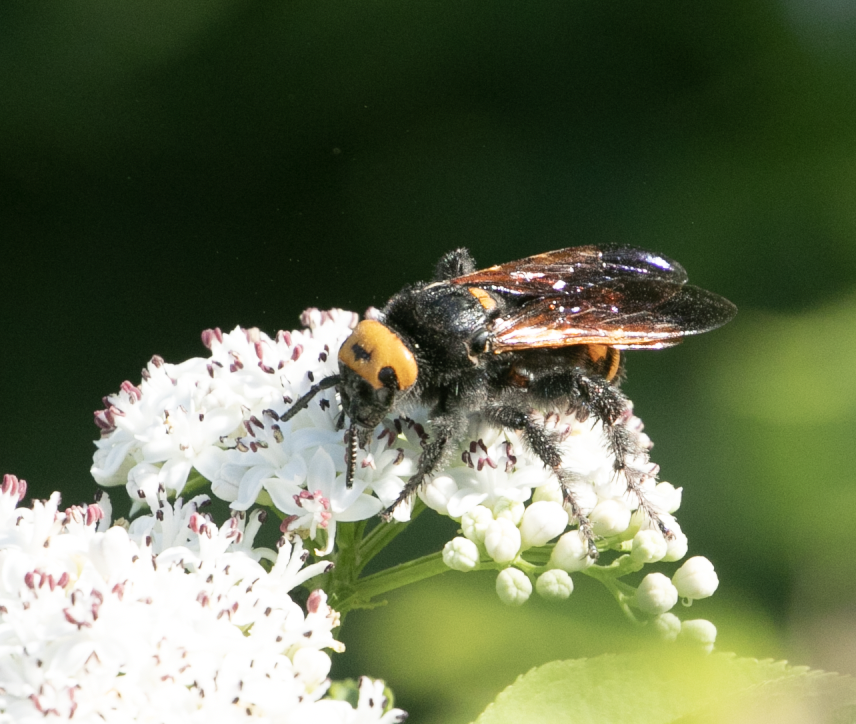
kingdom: Animalia
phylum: Arthropoda
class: Insecta
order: Hymenoptera
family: Scoliidae
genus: Megascolia
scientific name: Megascolia maculata
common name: Mammoth wasp
